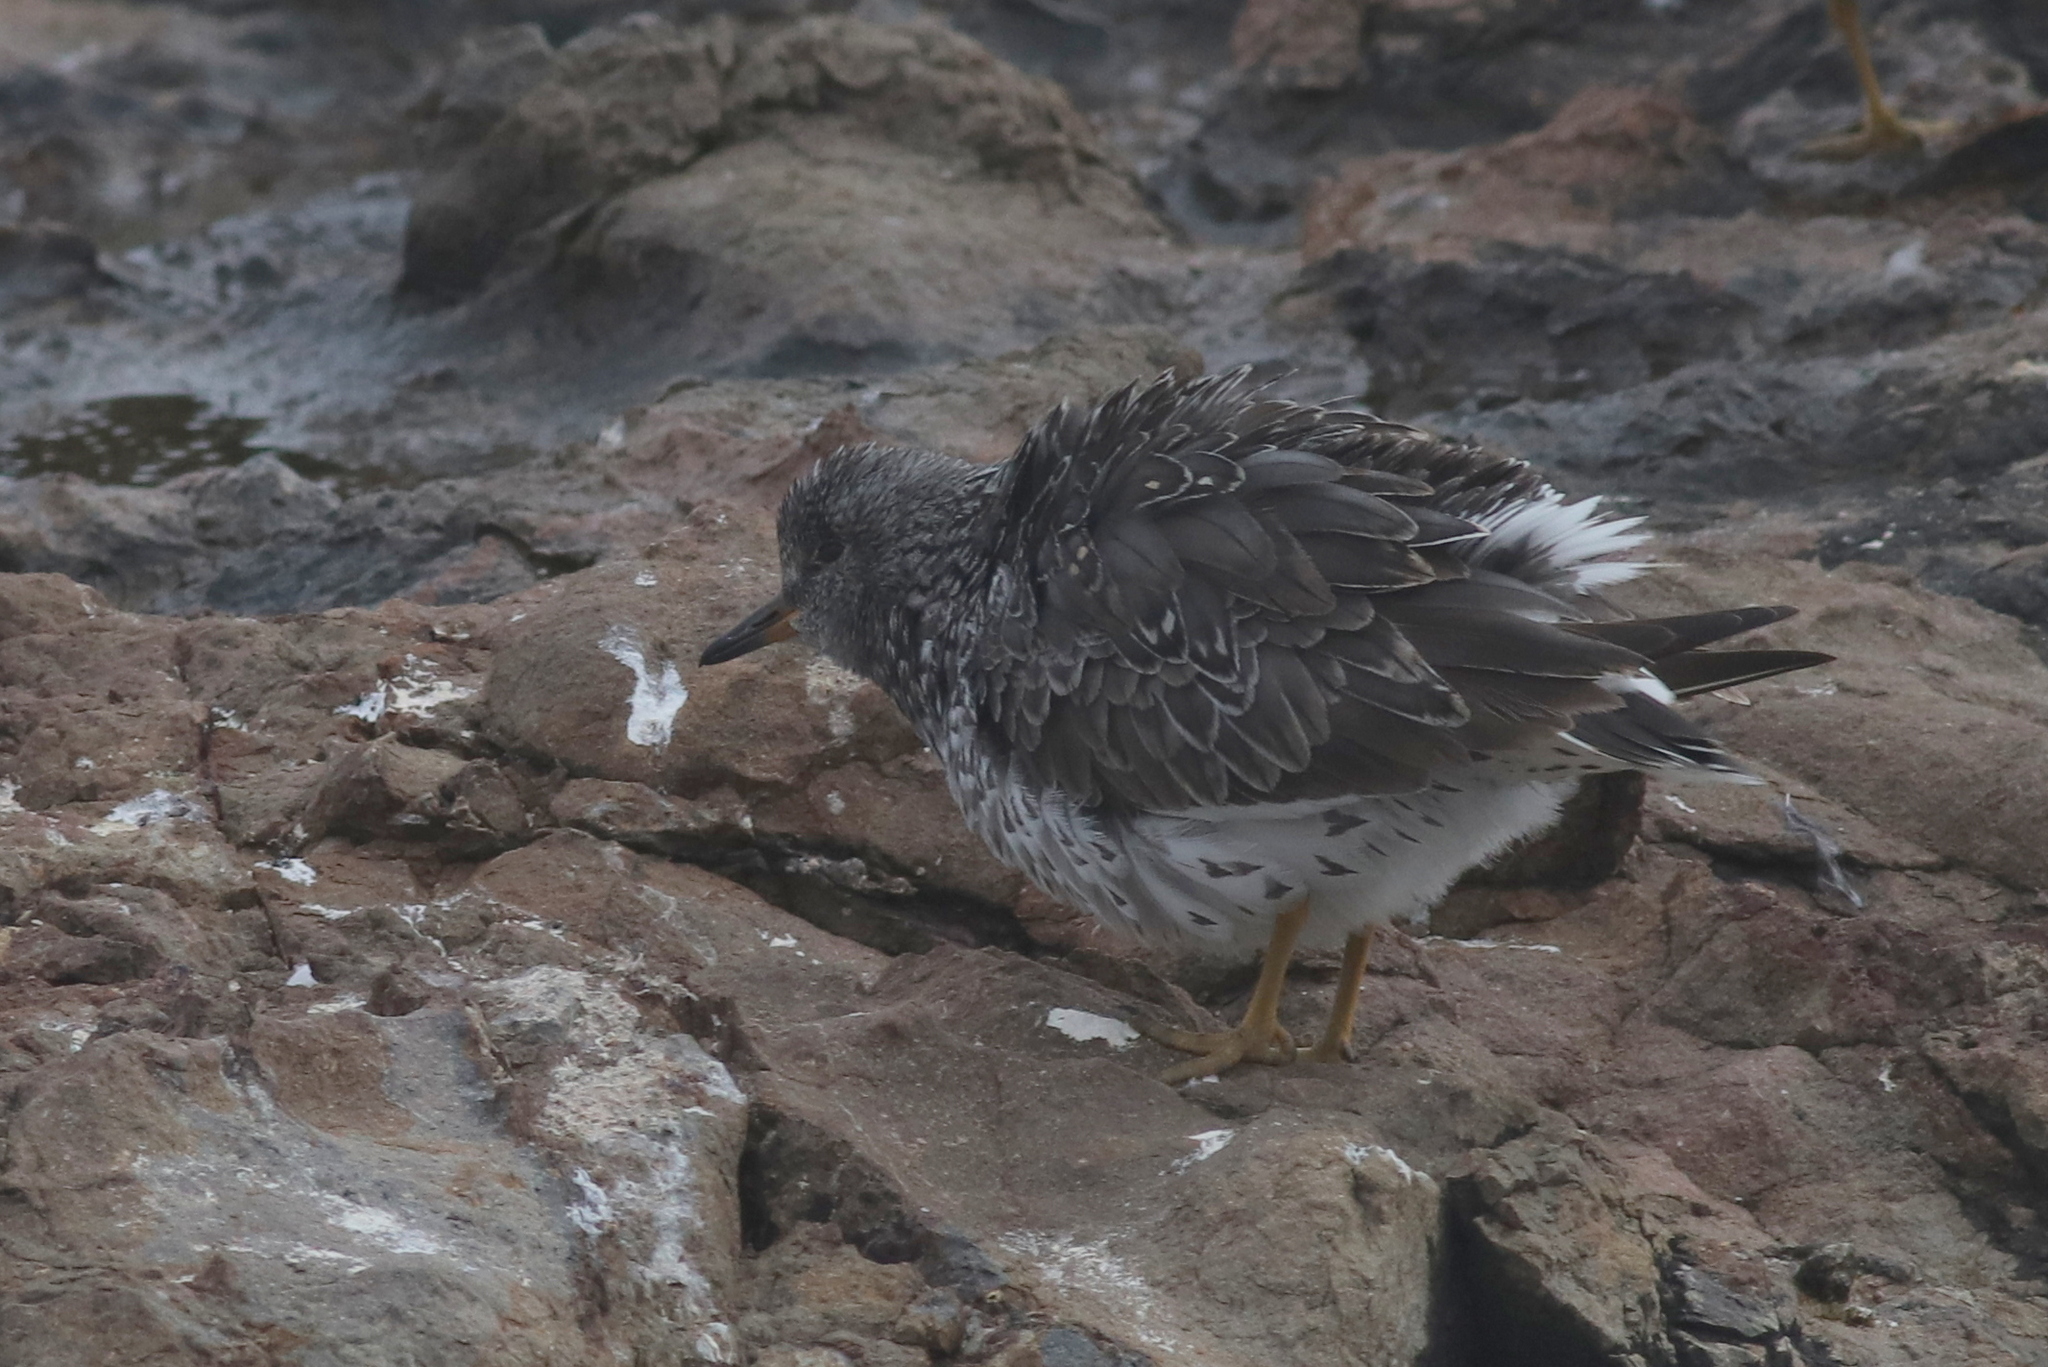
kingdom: Animalia
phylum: Chordata
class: Aves
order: Charadriiformes
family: Scolopacidae
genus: Calidris
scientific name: Calidris virgata
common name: Surfbird
